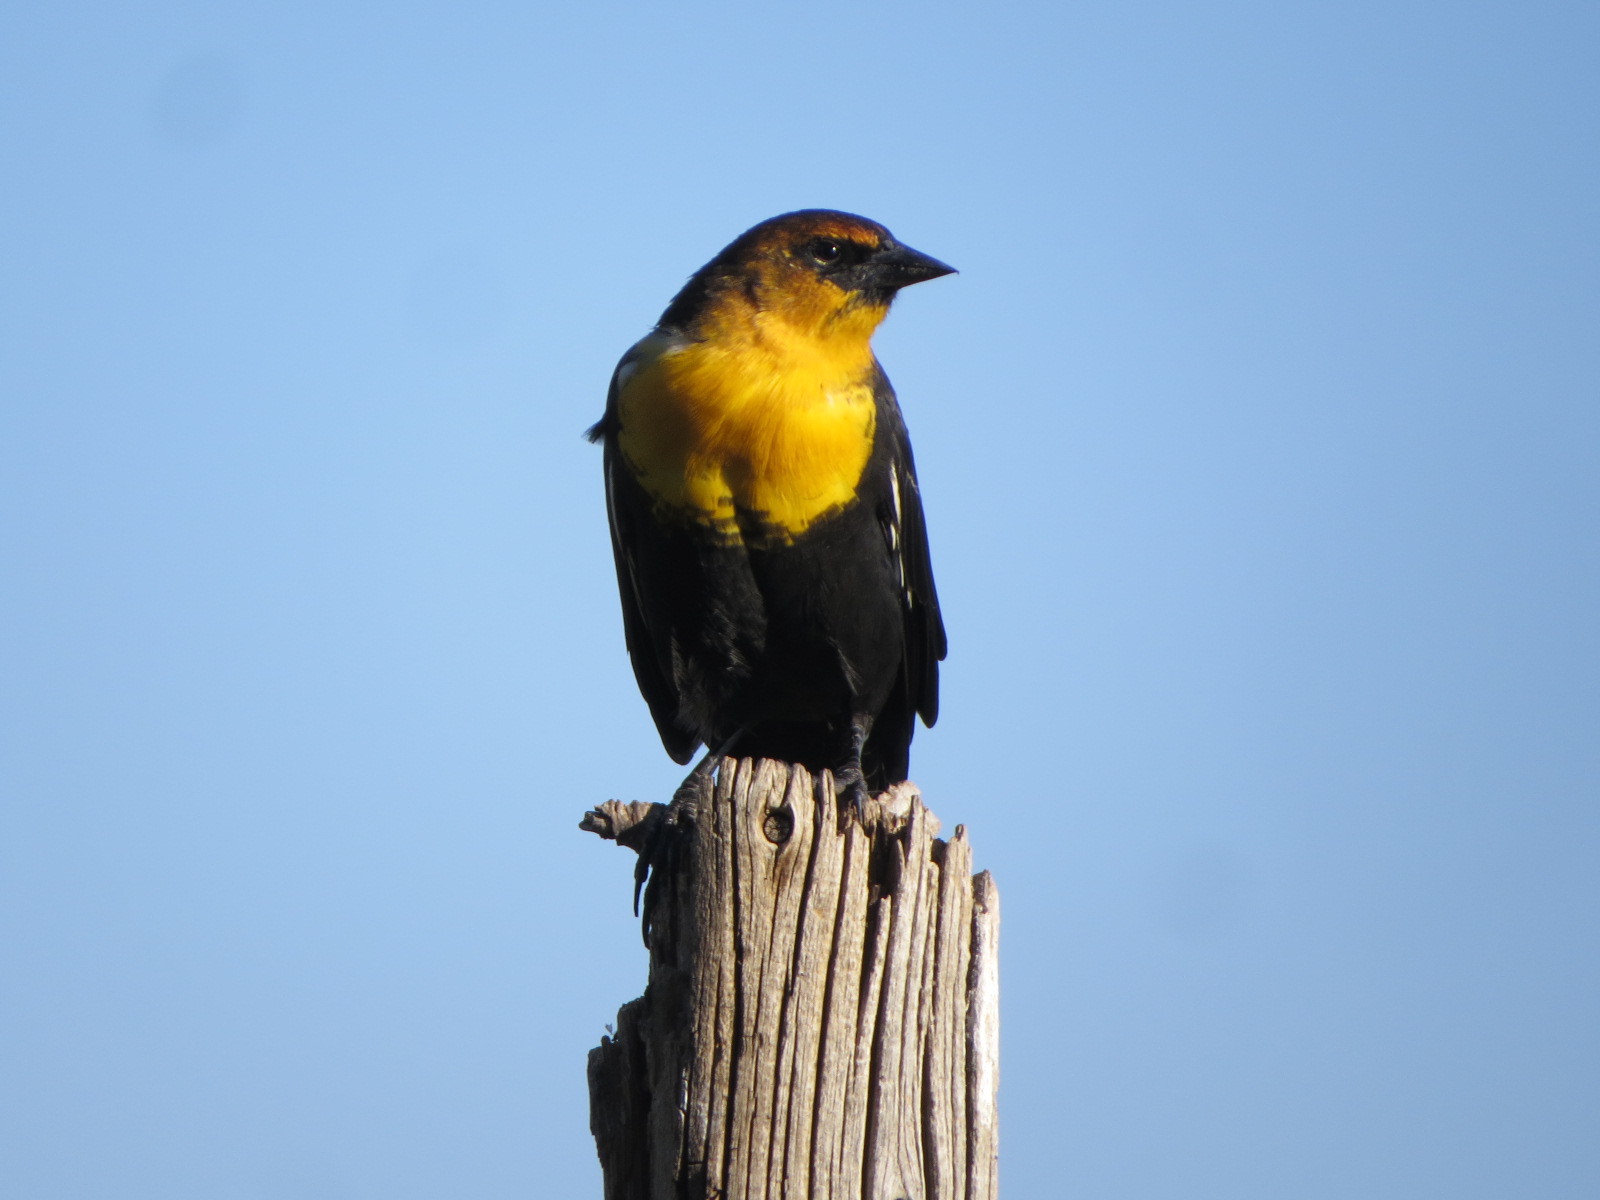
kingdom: Animalia
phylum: Chordata
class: Aves
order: Passeriformes
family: Icteridae
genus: Xanthocephalus
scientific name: Xanthocephalus xanthocephalus
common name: Yellow-headed blackbird
